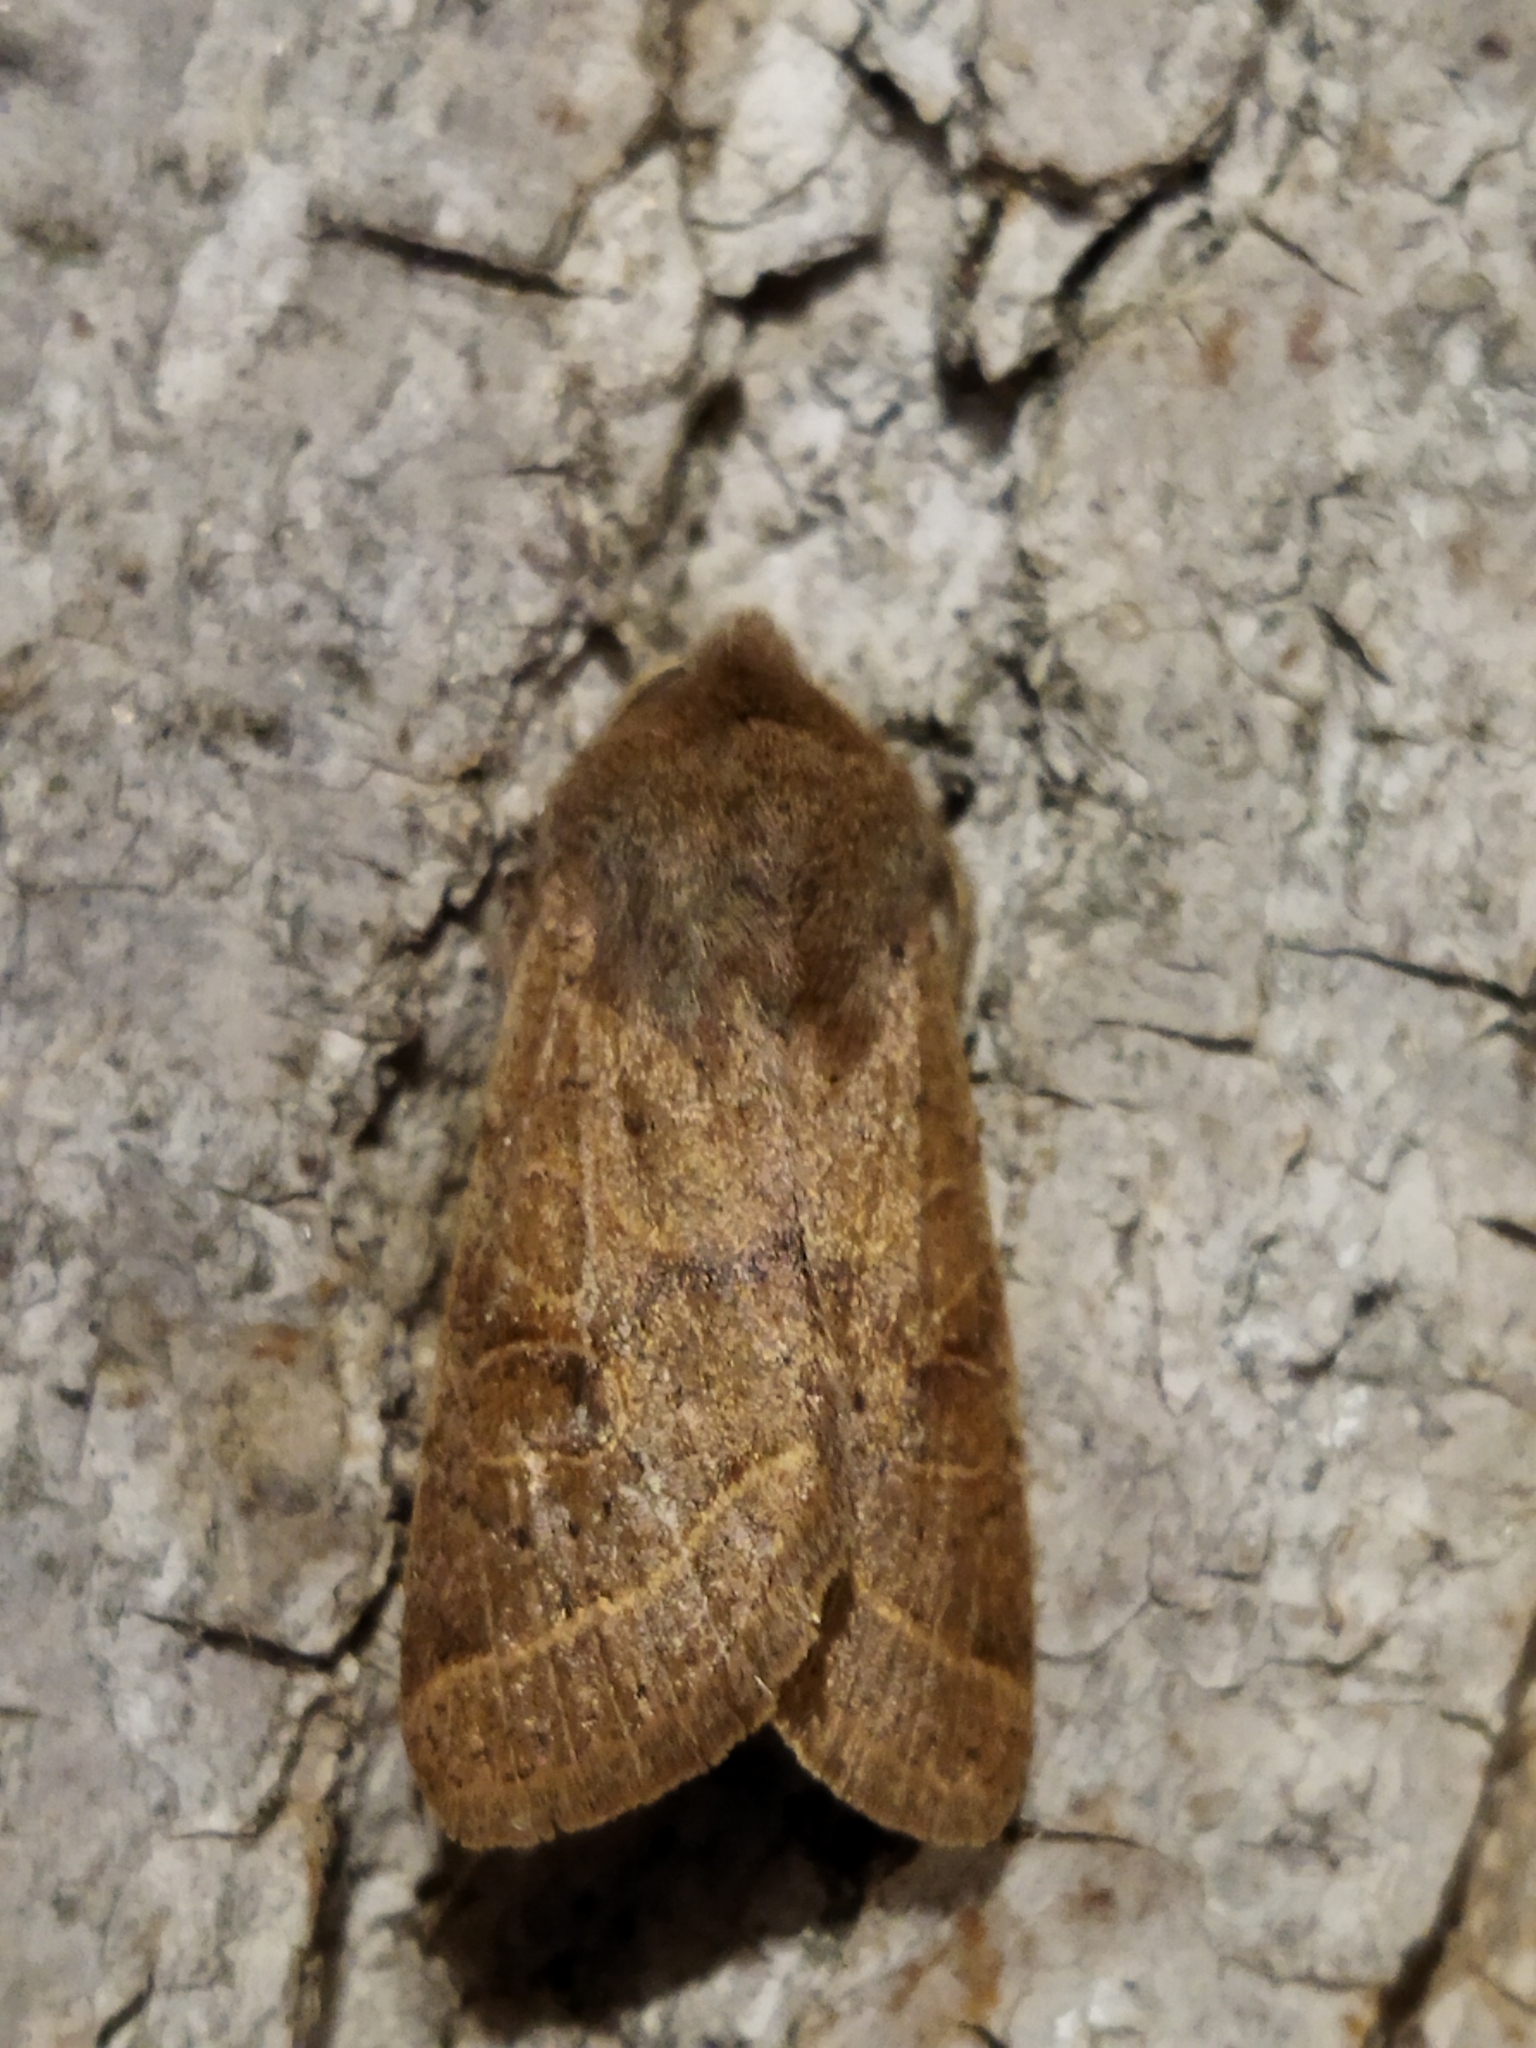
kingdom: Animalia
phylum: Arthropoda
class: Insecta
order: Lepidoptera
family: Noctuidae
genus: Orthosia
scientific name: Orthosia cerasi
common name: Common quaker
